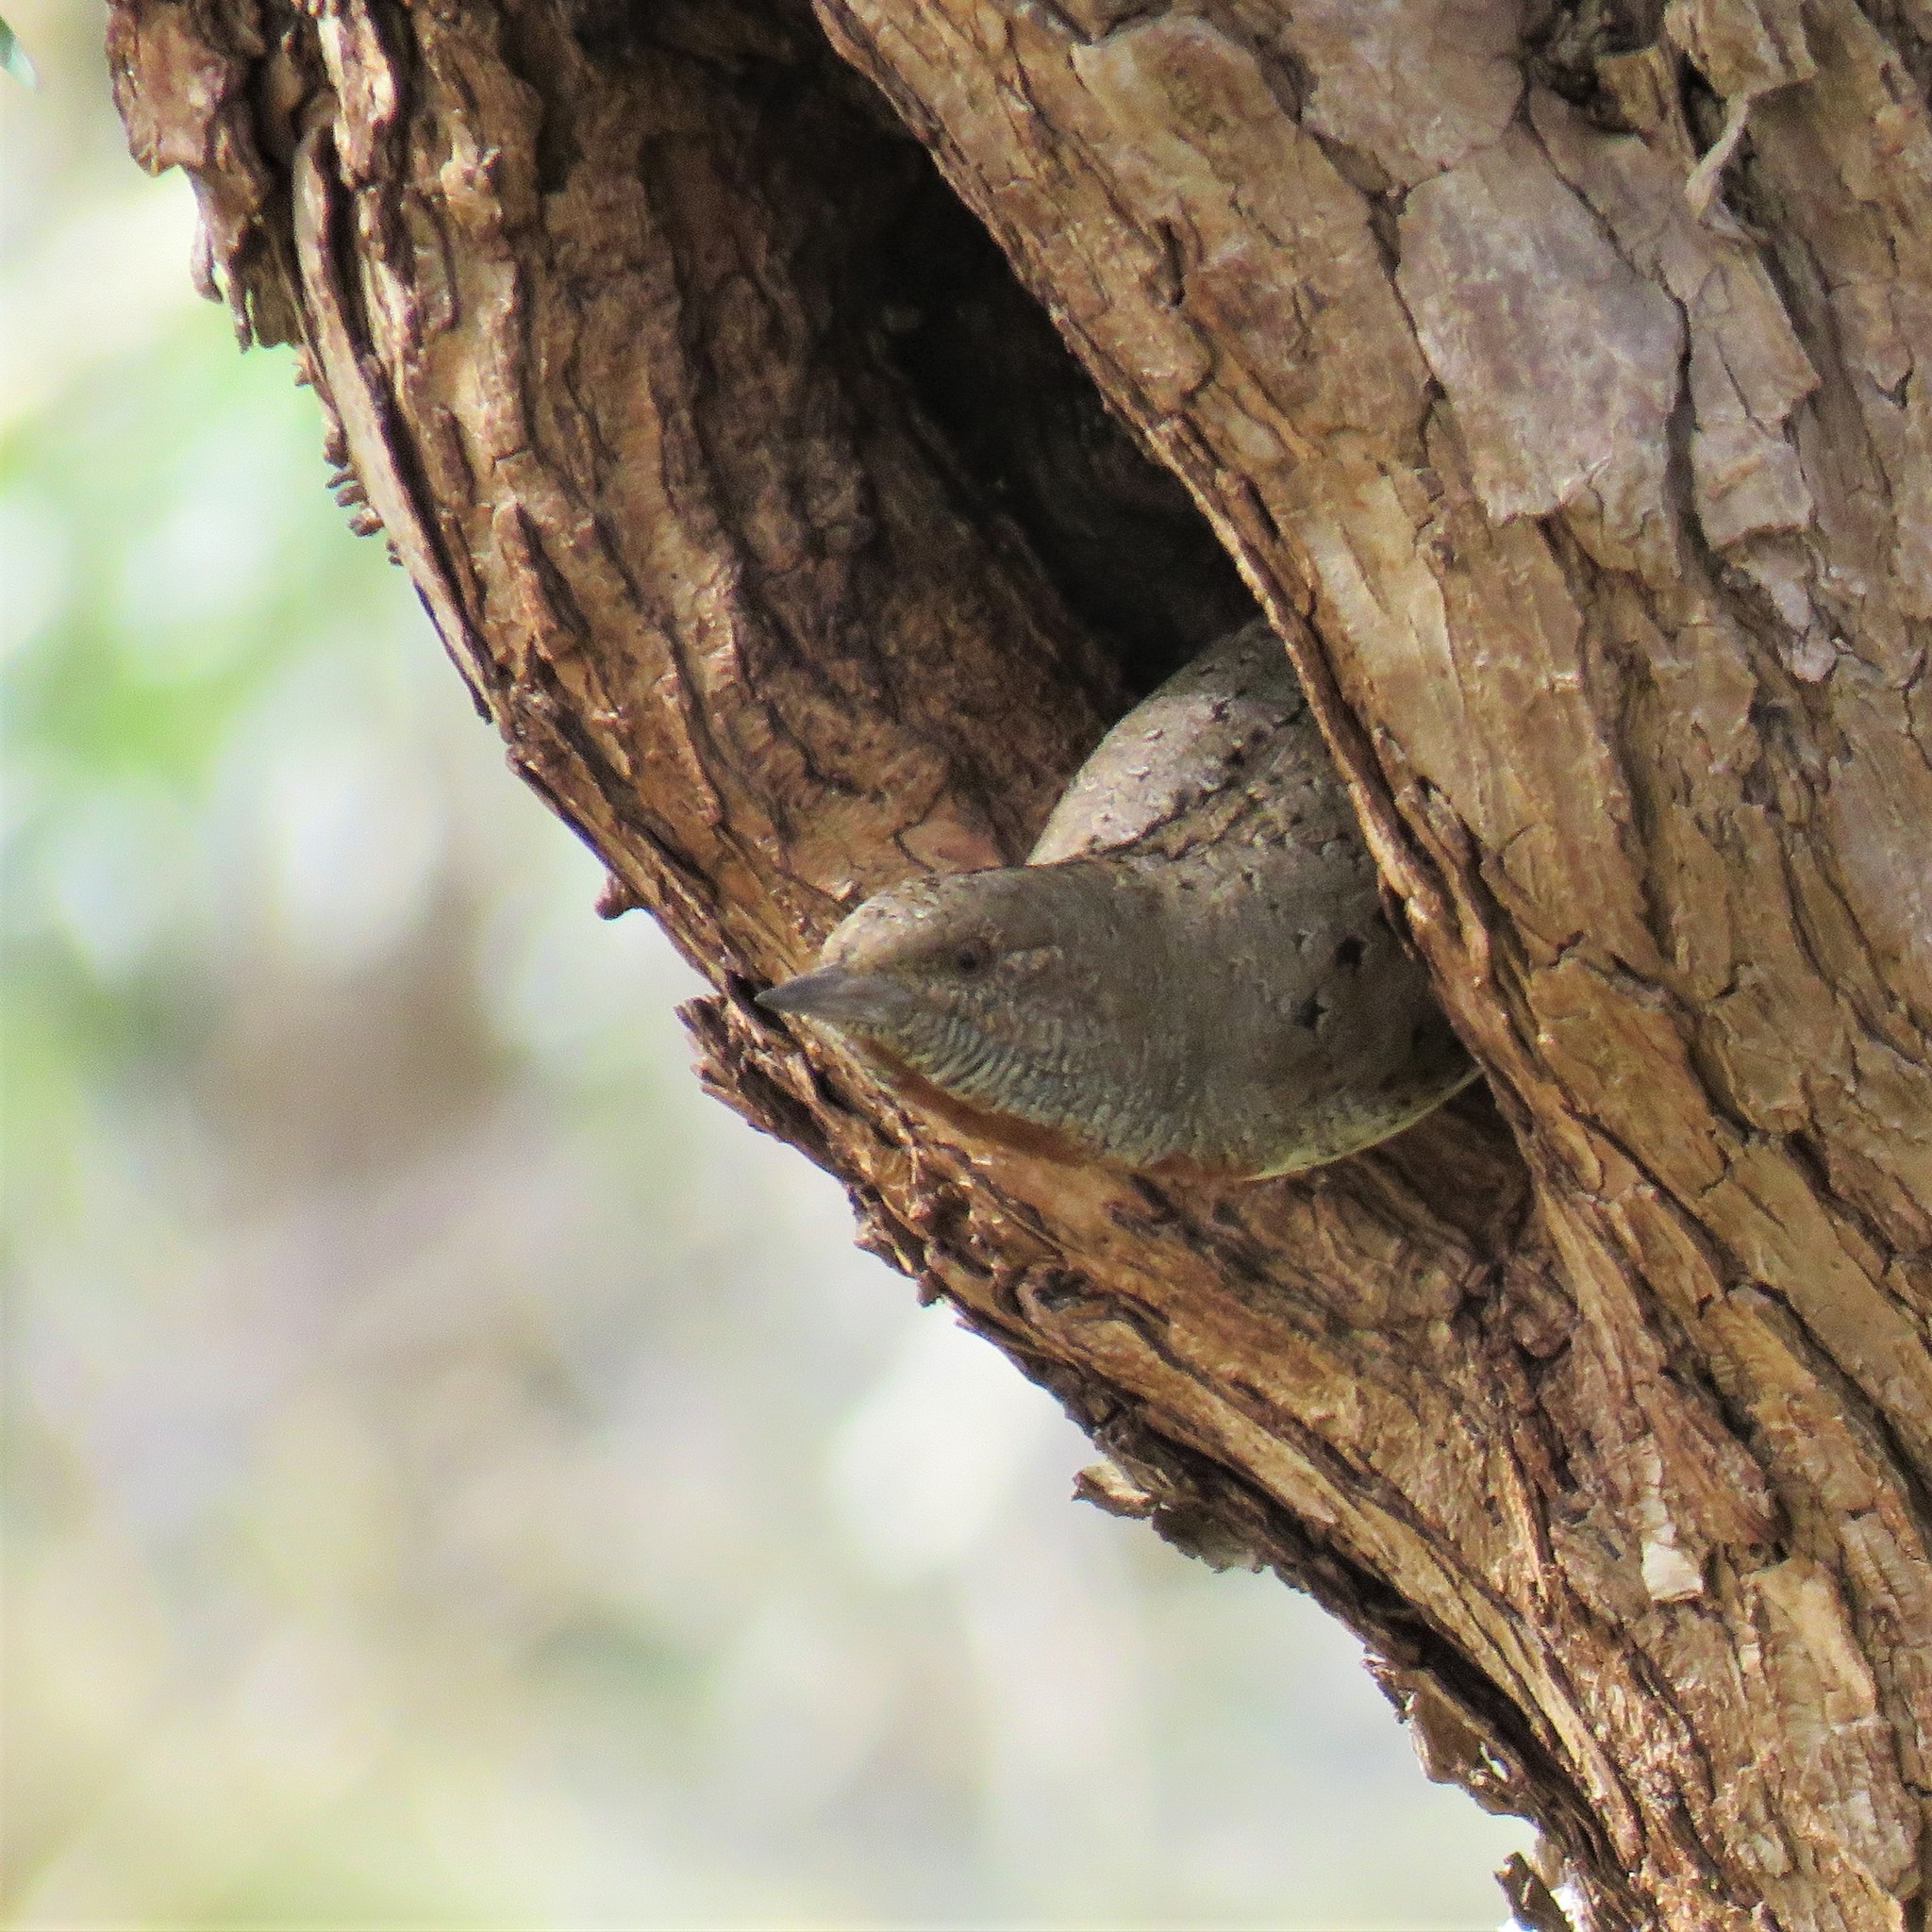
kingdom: Animalia
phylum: Chordata
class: Aves
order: Piciformes
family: Picidae
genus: Jynx
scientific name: Jynx ruficollis
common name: Red-throated wryneck
